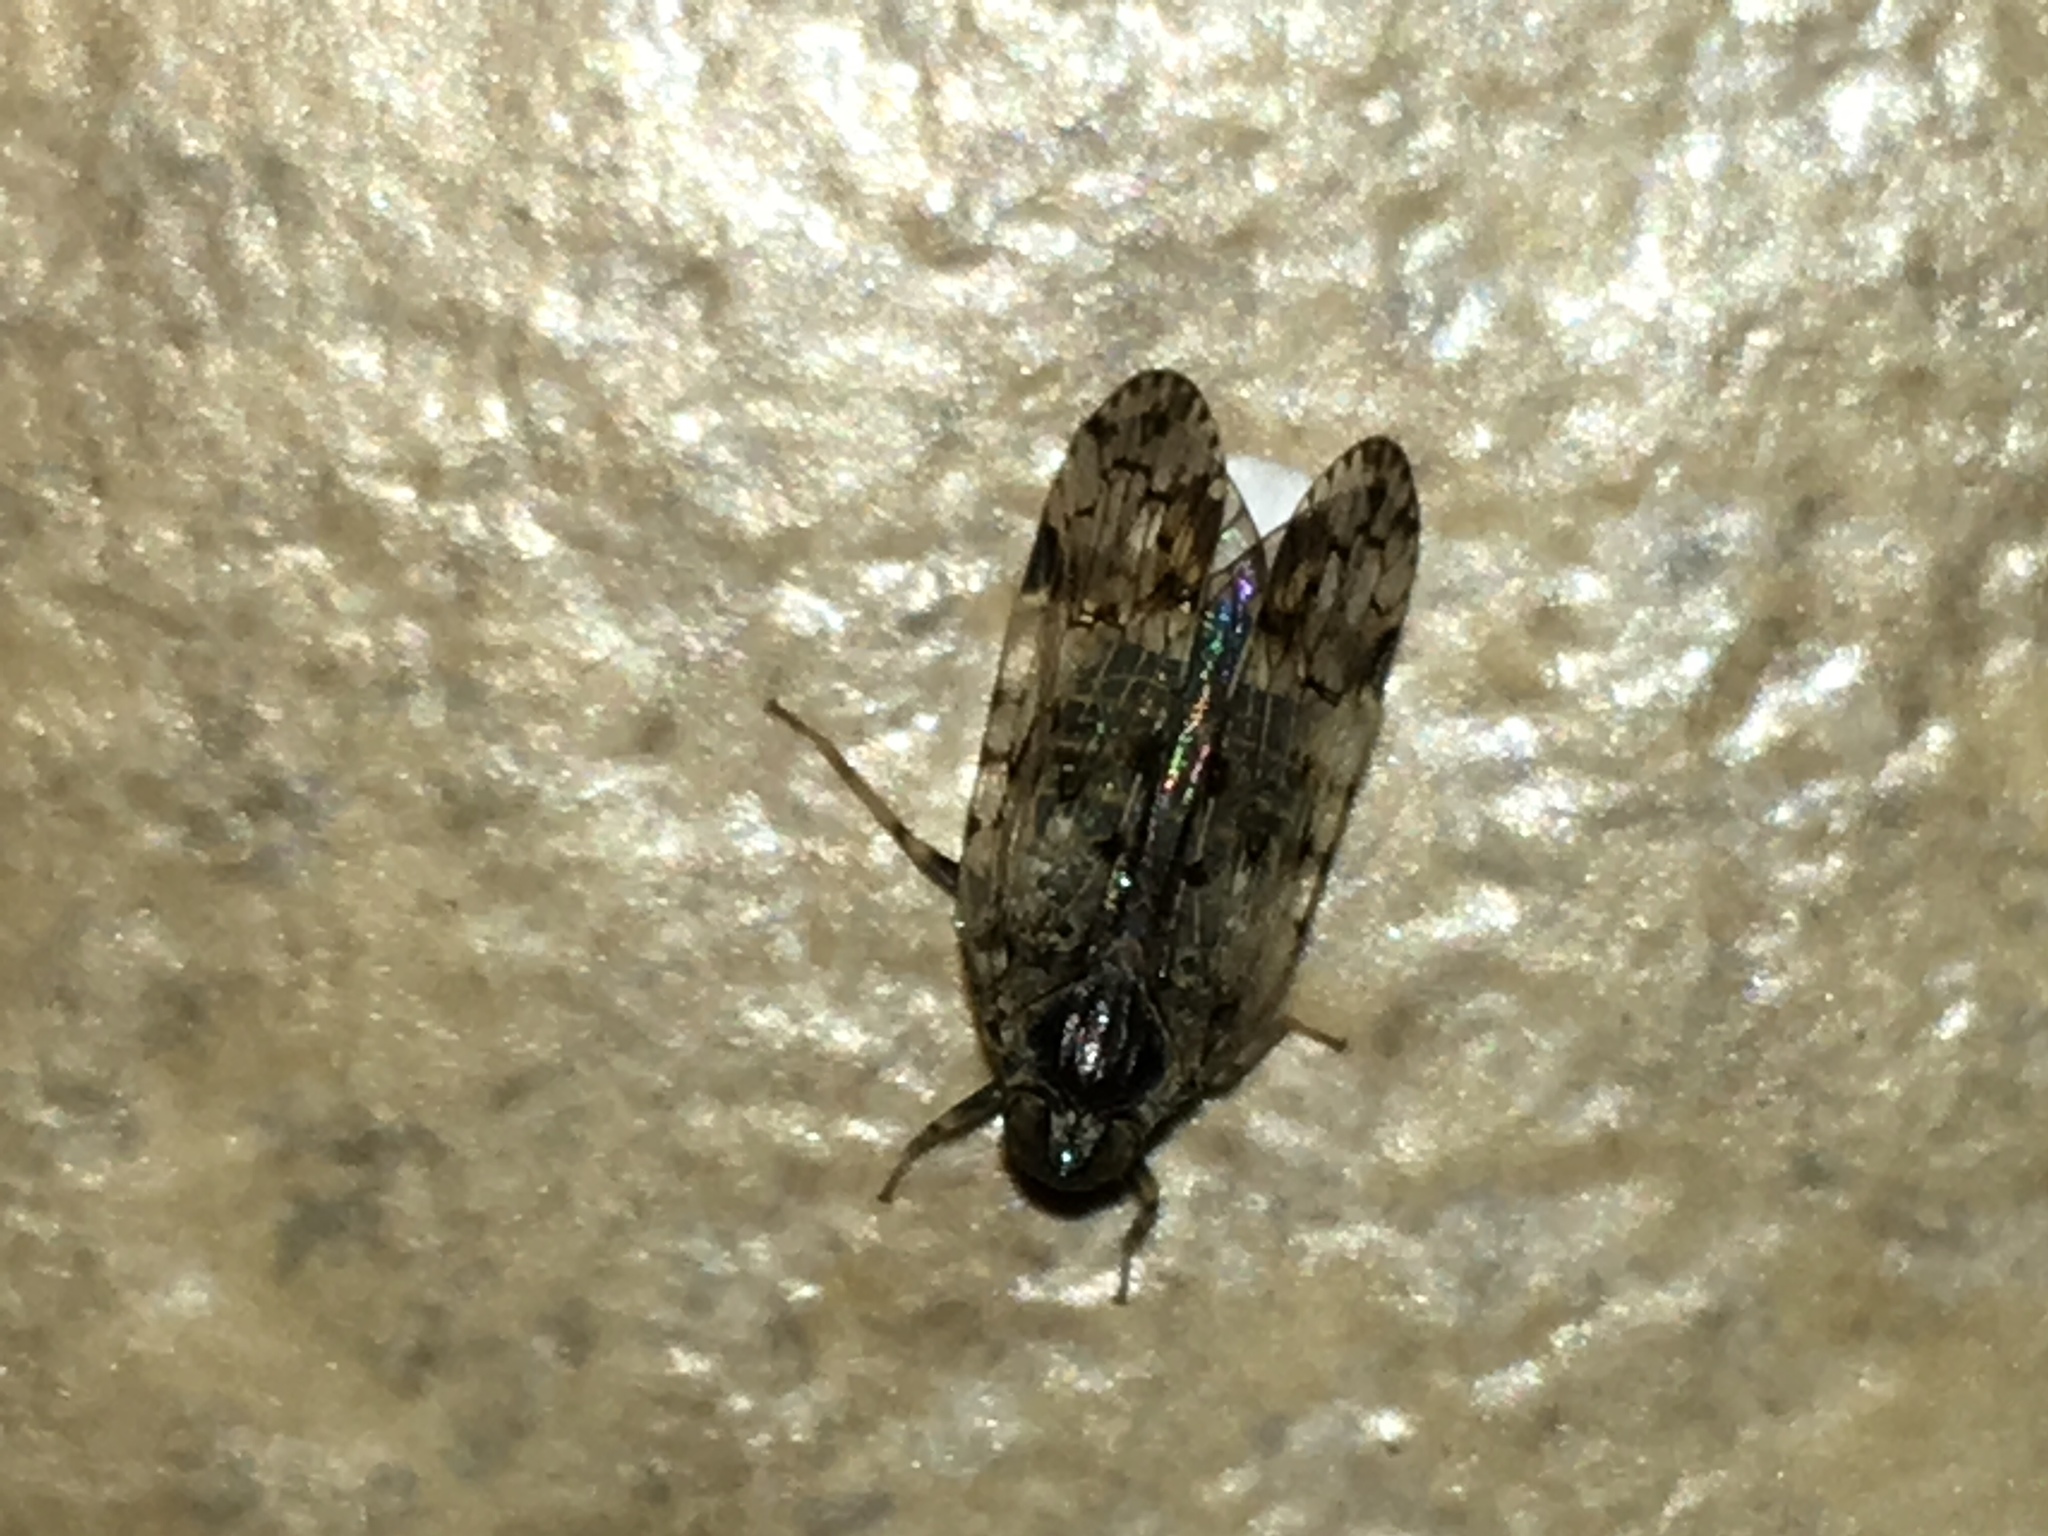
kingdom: Animalia
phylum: Arthropoda
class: Insecta
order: Hemiptera
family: Cixiidae
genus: Melanoliarus
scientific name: Melanoliarus placitus
